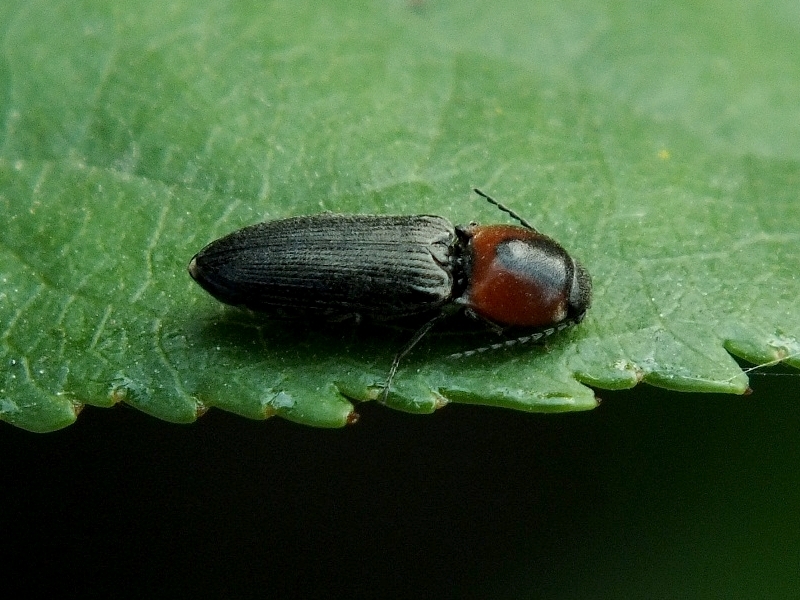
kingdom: Animalia
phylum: Arthropoda
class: Insecta
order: Coleoptera
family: Elateridae
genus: Cardiophorus
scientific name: Cardiophorus discicollis
